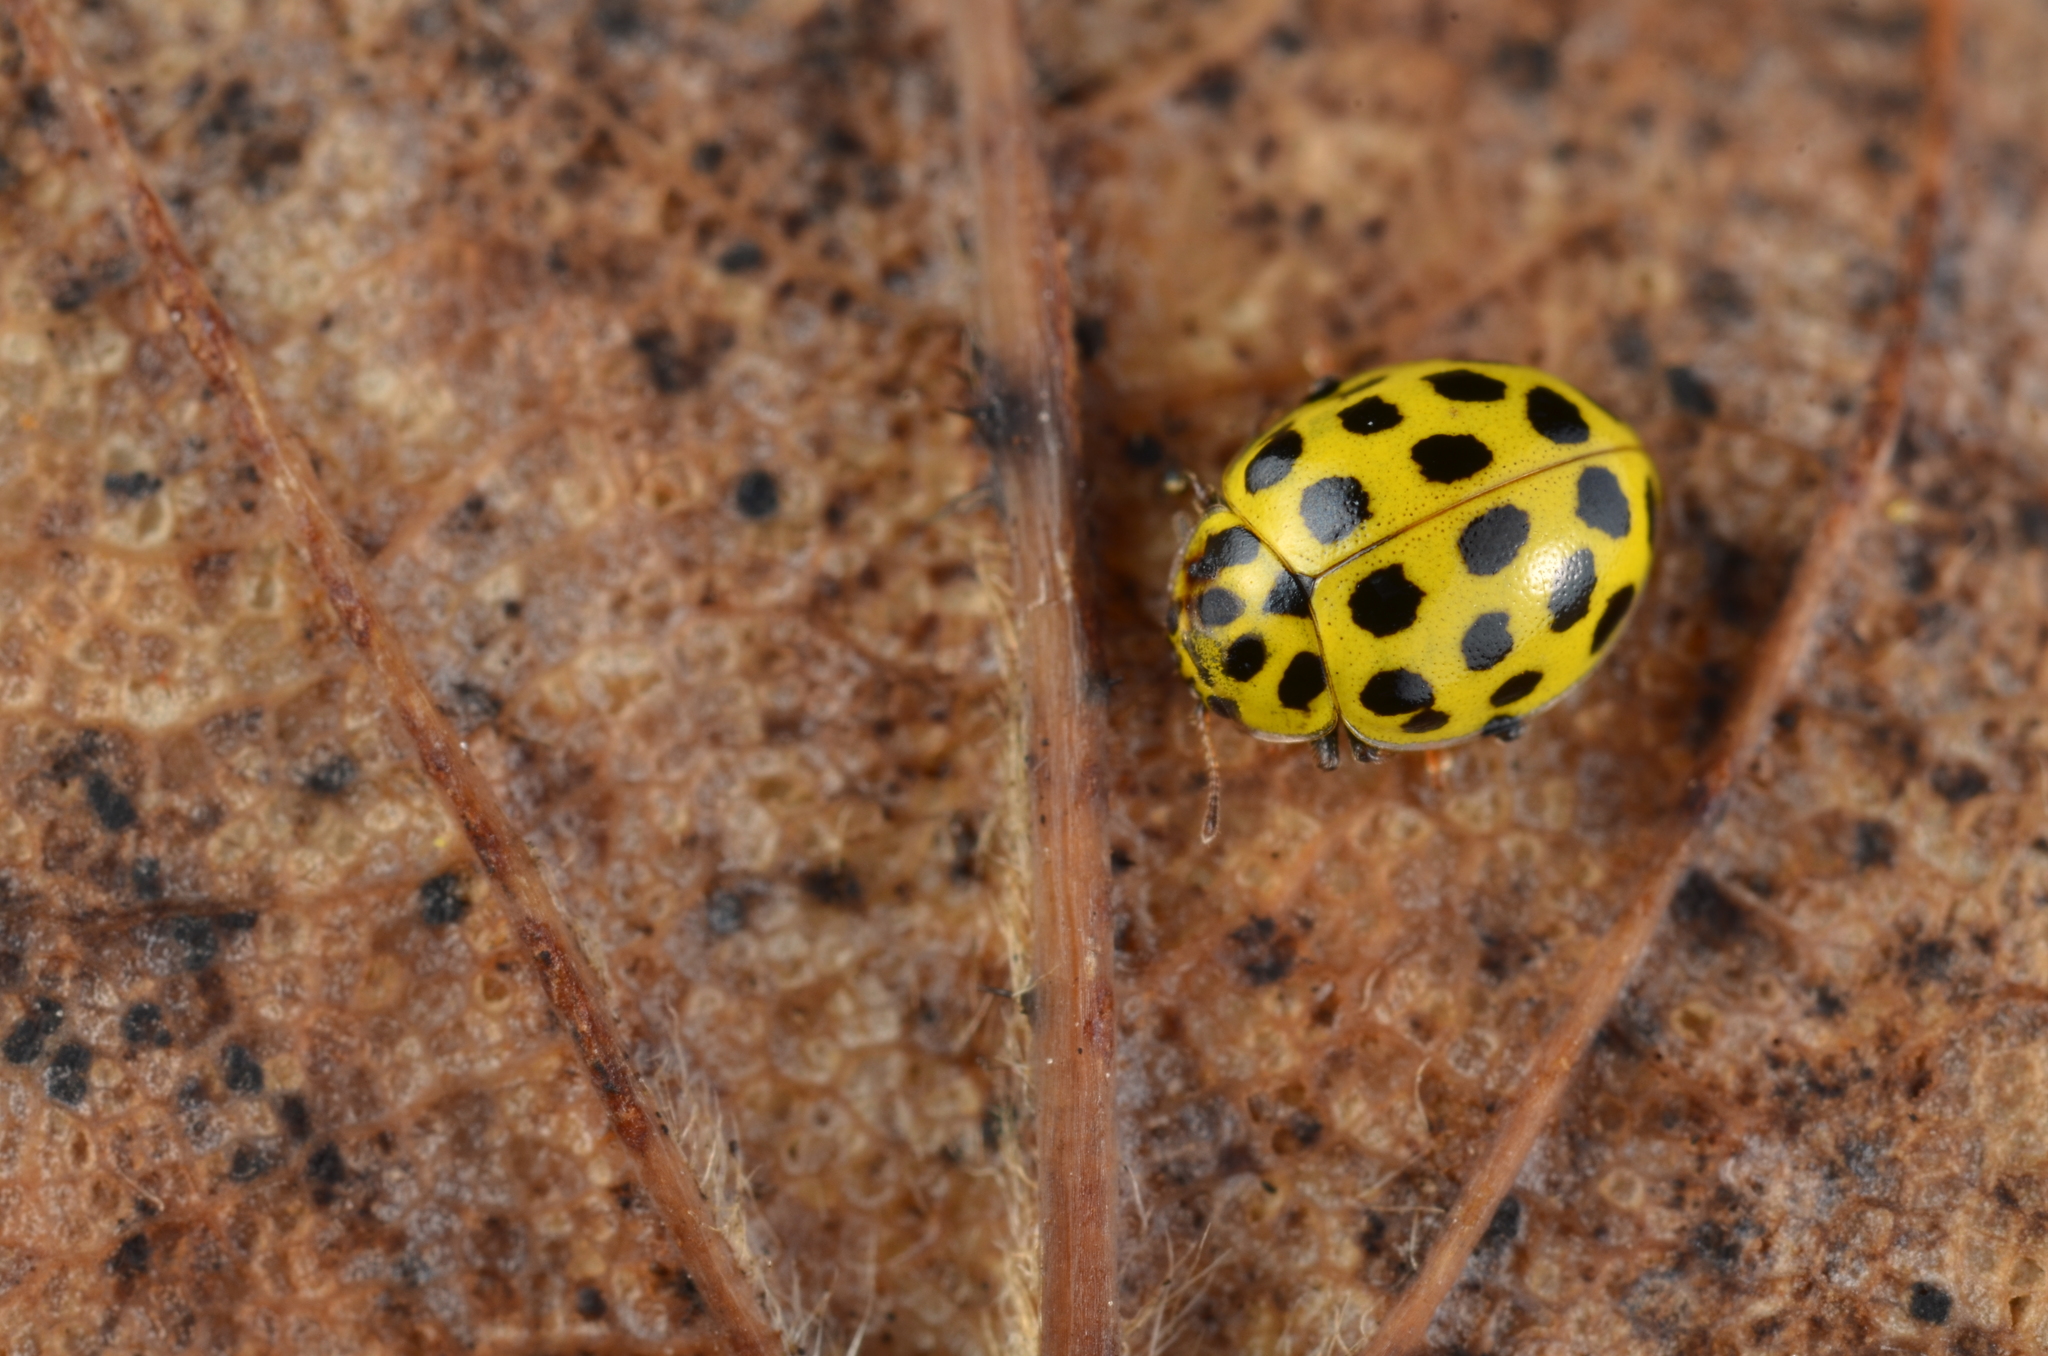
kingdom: Animalia
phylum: Arthropoda
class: Insecta
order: Coleoptera
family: Coccinellidae
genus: Psyllobora
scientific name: Psyllobora vigintiduopunctata
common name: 22-spot ladybird
